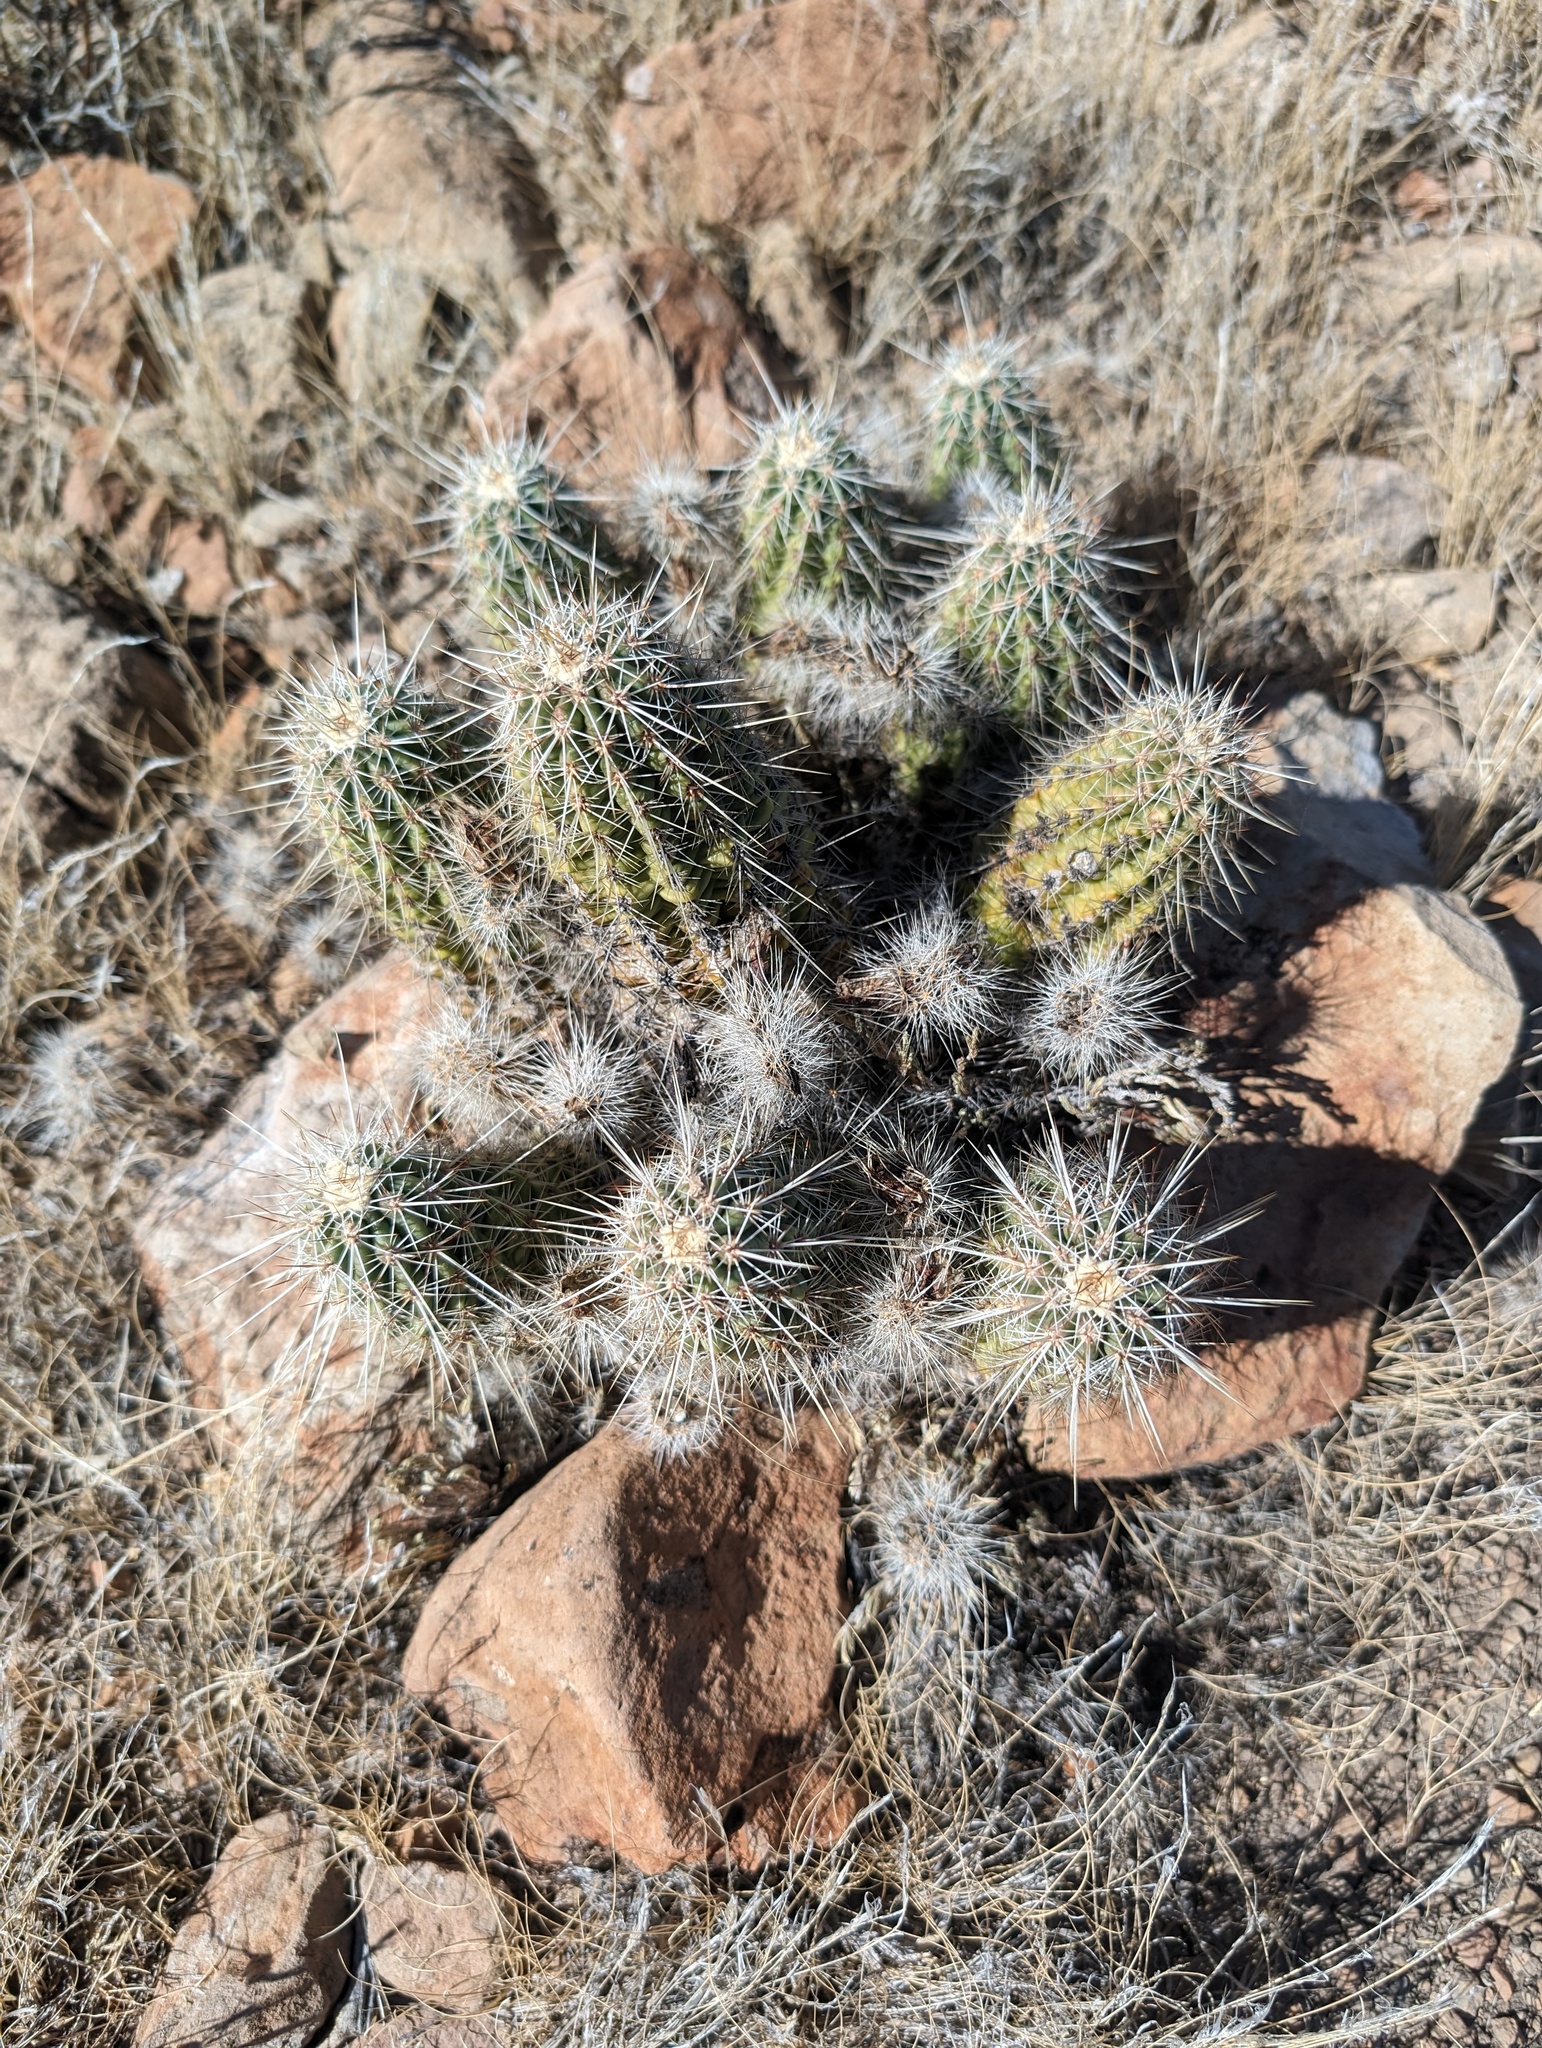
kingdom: Plantae
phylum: Tracheophyta
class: Magnoliopsida
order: Caryophyllales
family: Cactaceae
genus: Echinocereus
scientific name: Echinocereus engelmannii
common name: Engelmann's hedgehog cactus
